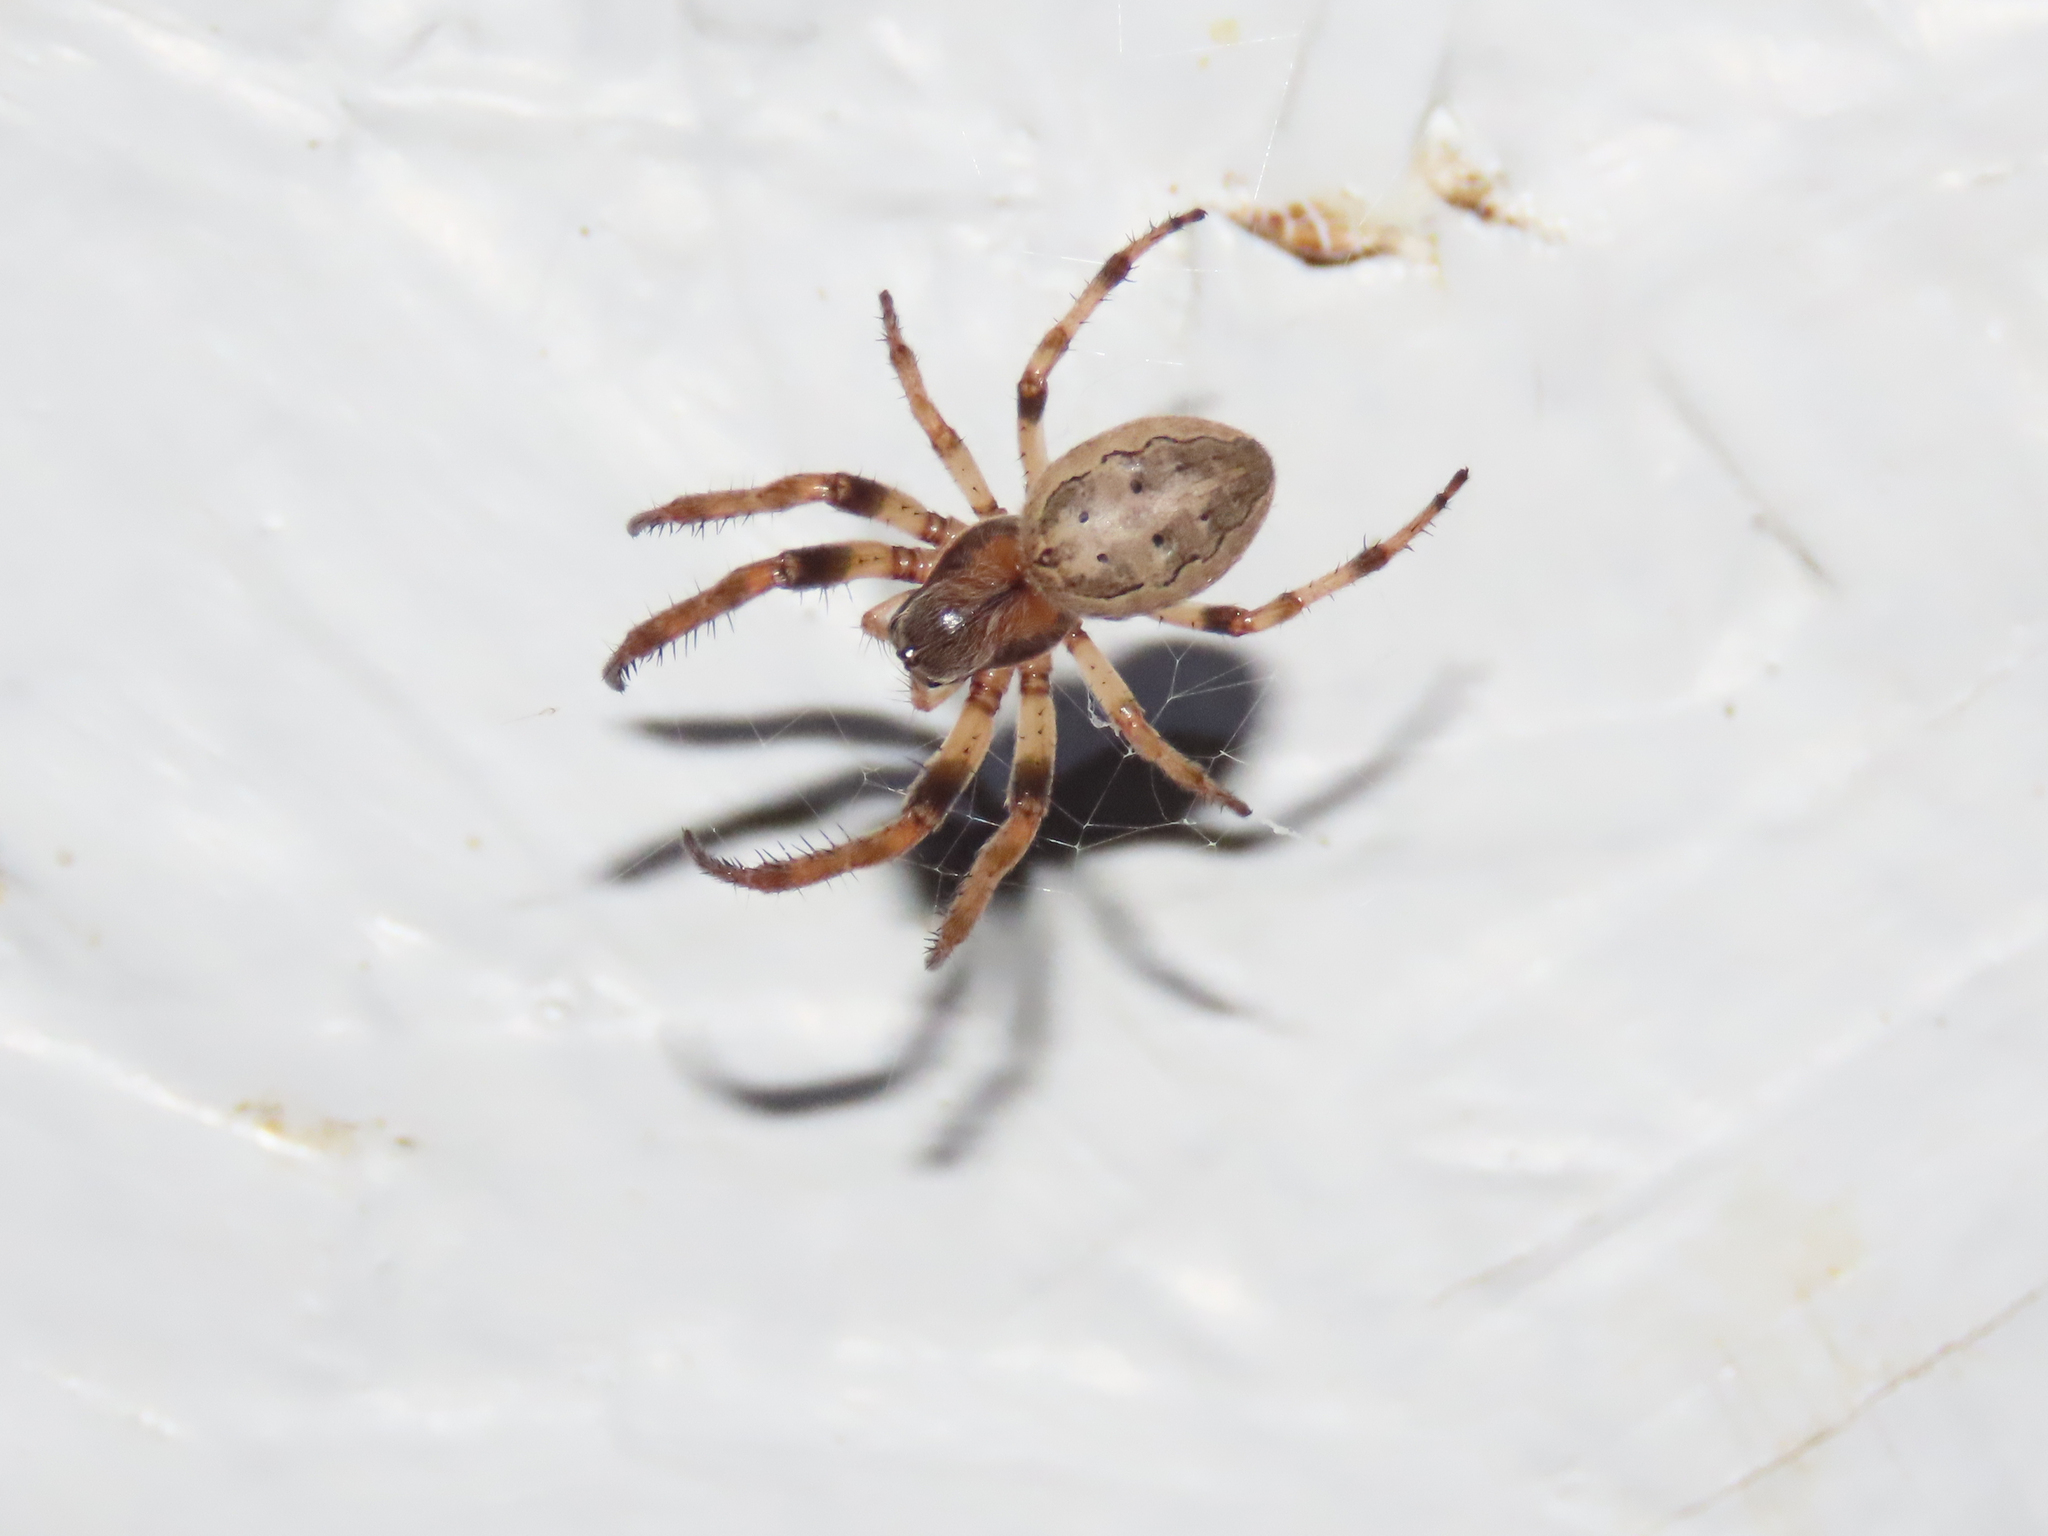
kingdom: Animalia
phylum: Arthropoda
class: Arachnida
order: Araneae
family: Araneidae
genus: Larinioides
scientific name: Larinioides cornutus
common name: Furrow orbweaver
